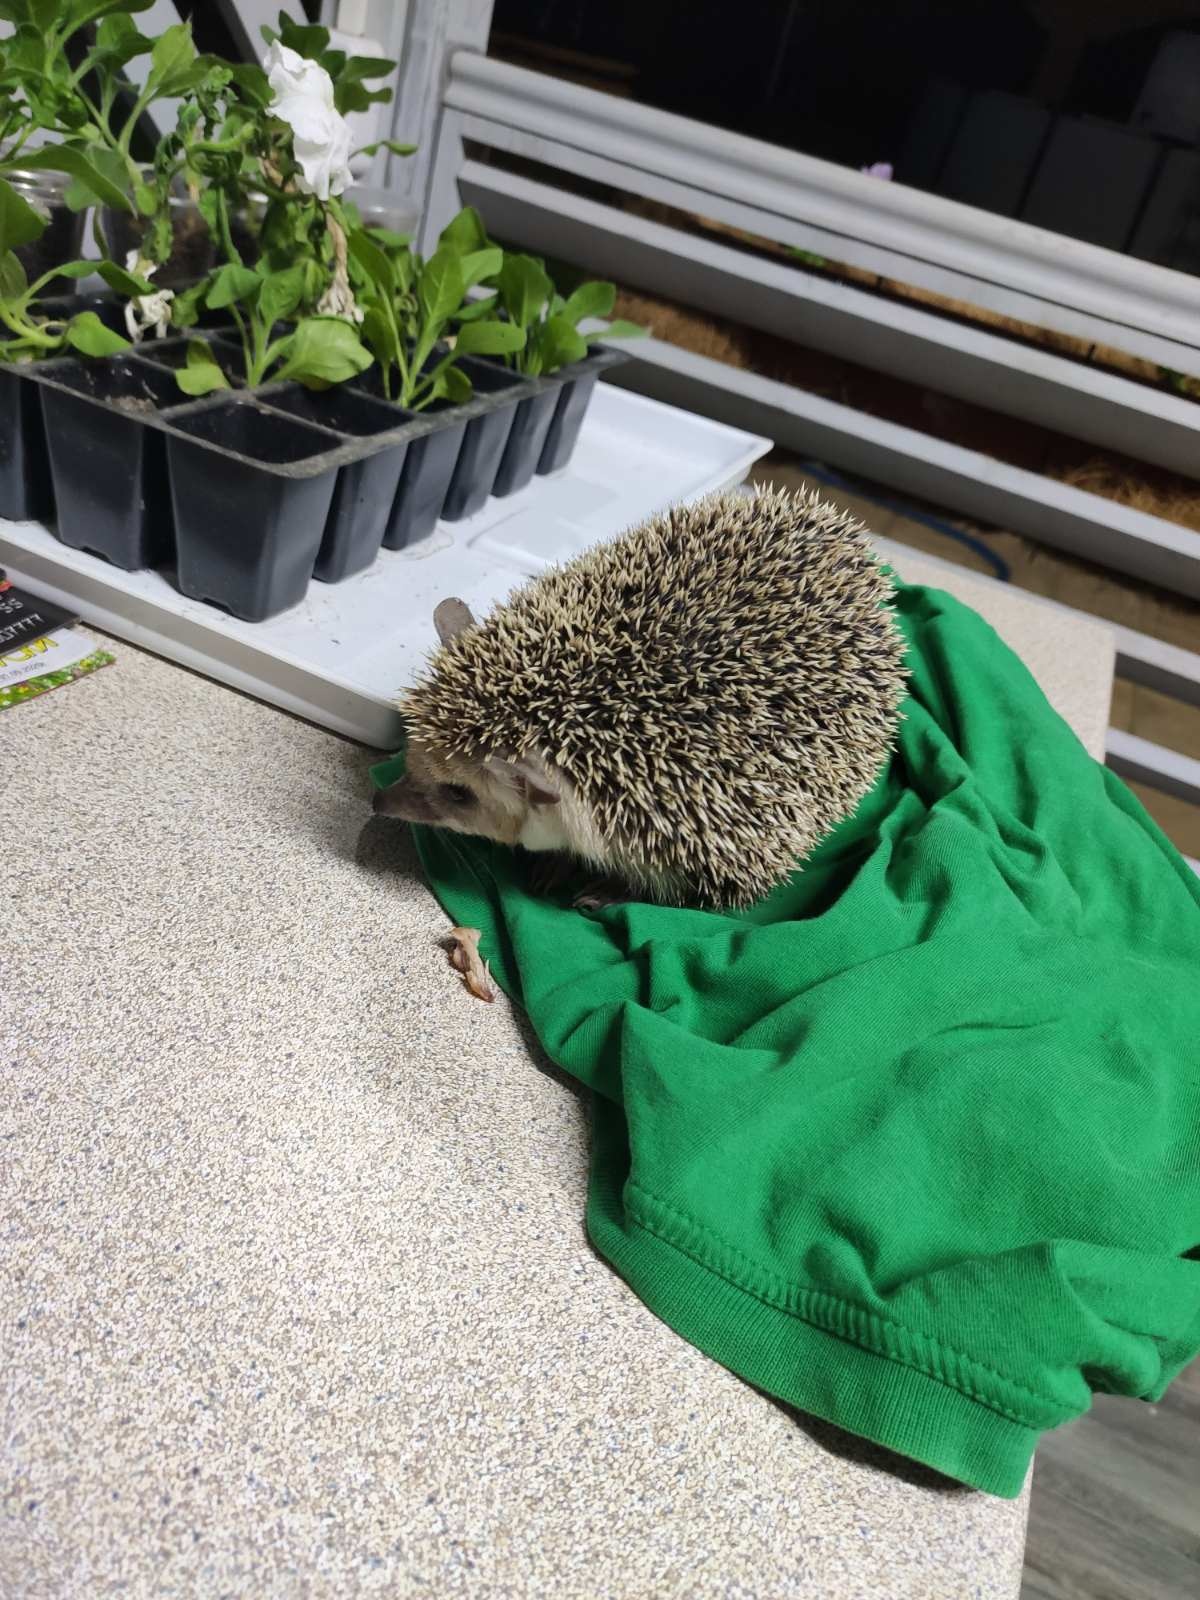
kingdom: Animalia
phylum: Chordata
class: Mammalia
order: Erinaceomorpha
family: Erinaceidae
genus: Hemiechinus
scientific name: Hemiechinus auritus
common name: Long-eared hedgehog
